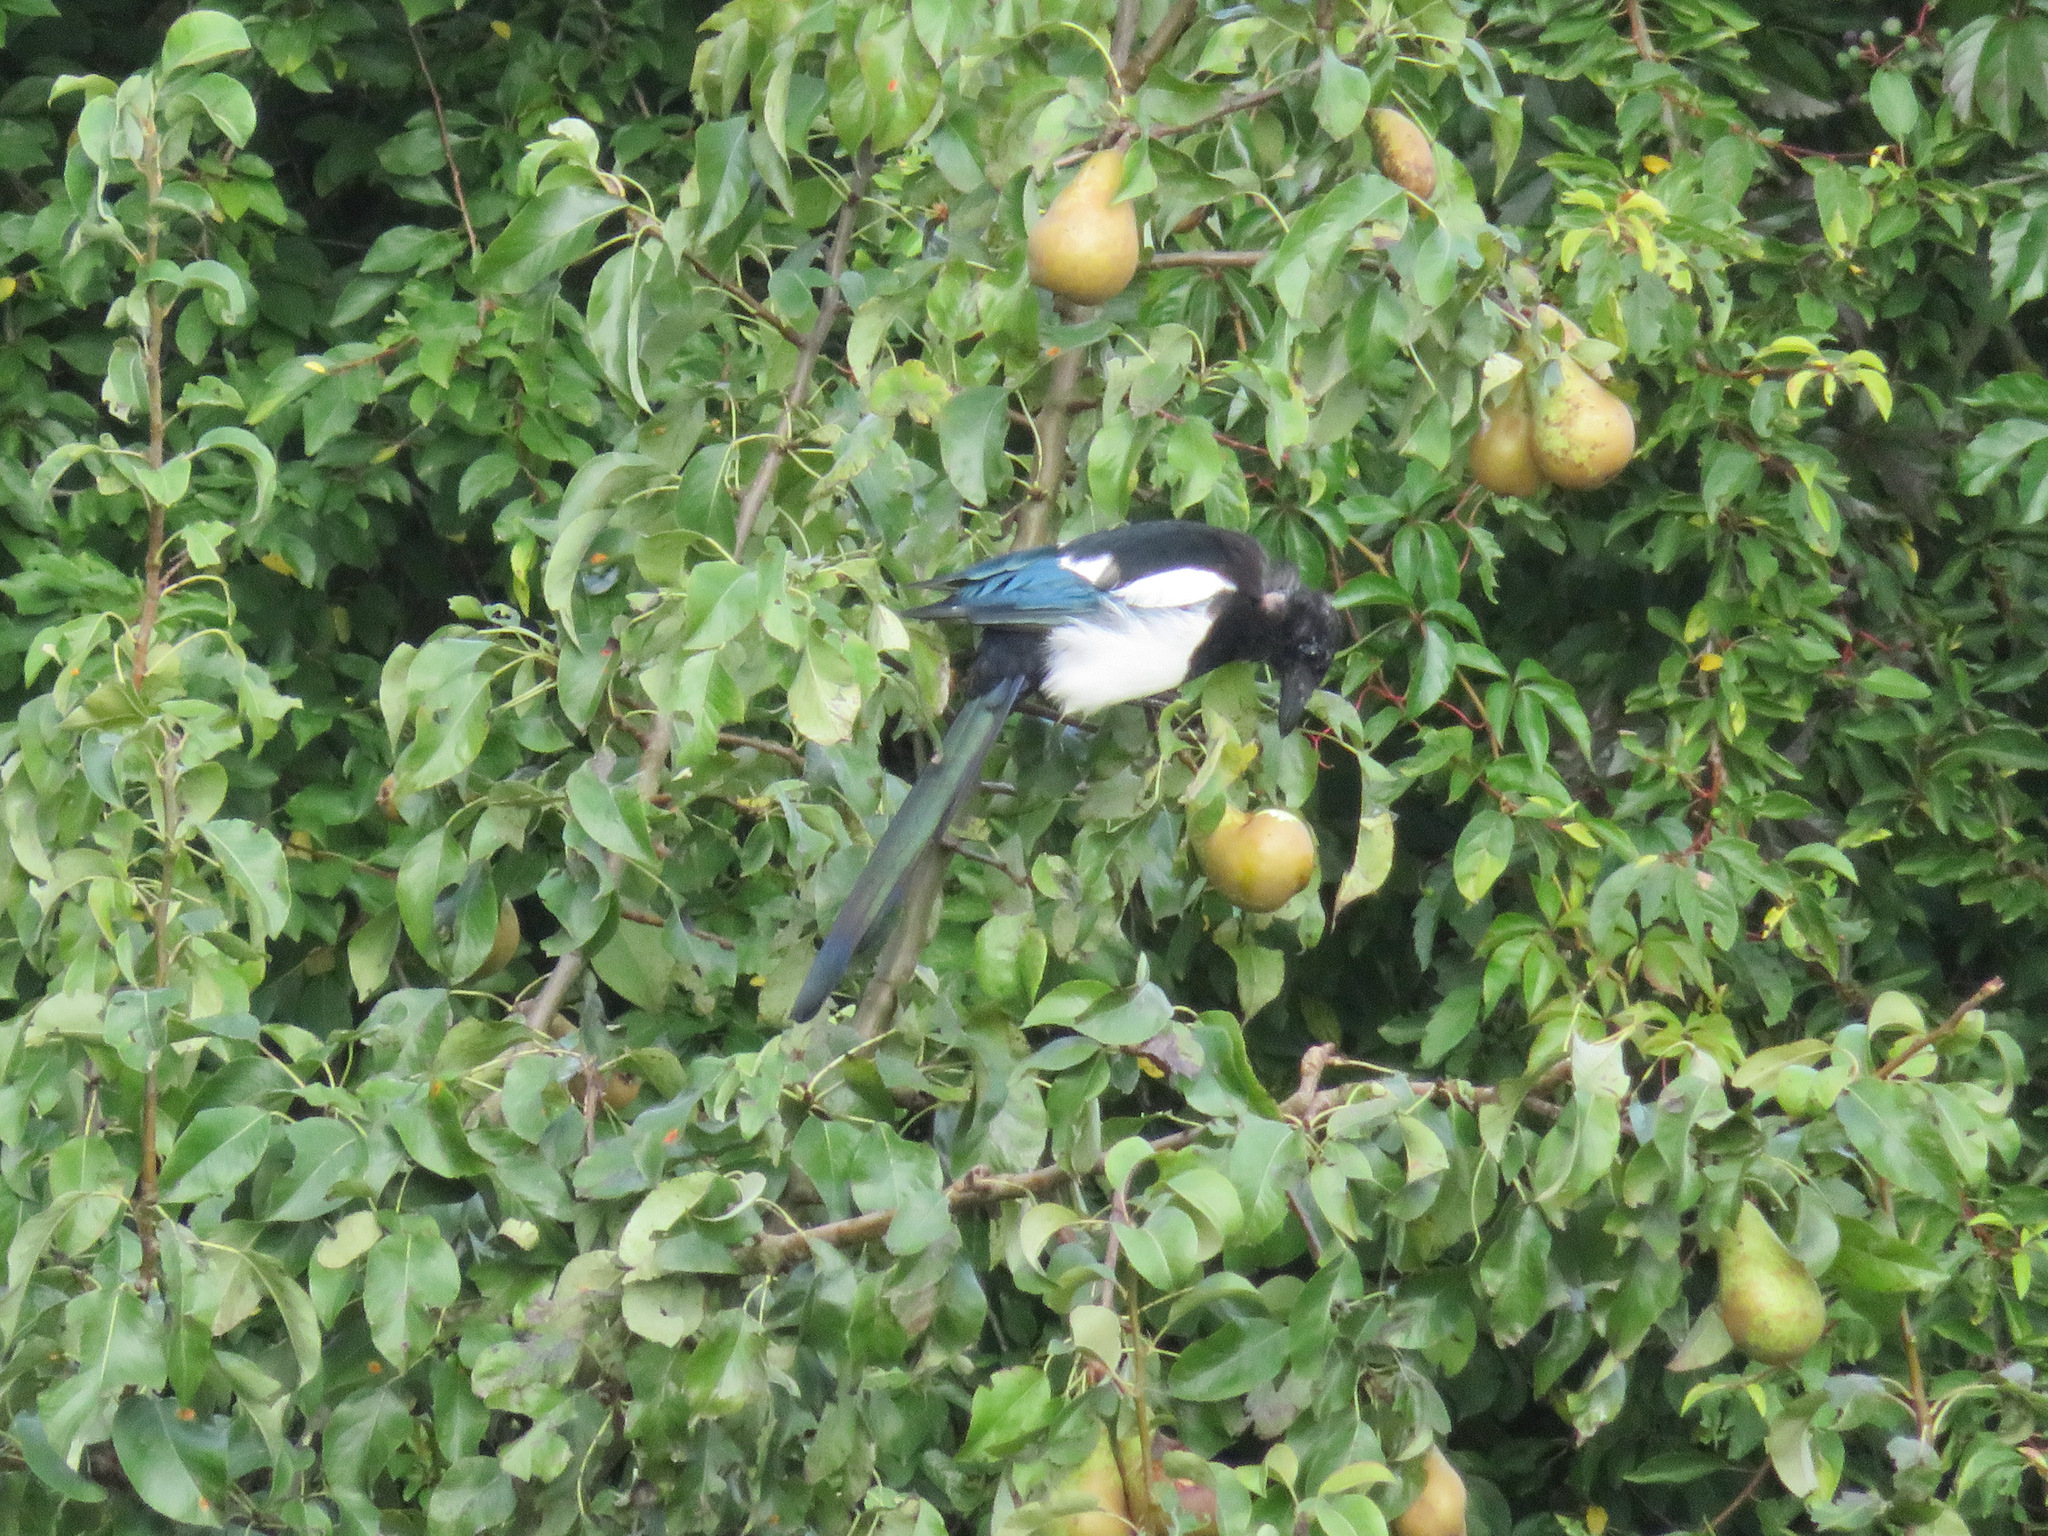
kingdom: Animalia
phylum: Chordata
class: Aves
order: Passeriformes
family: Corvidae
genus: Pica
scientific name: Pica pica
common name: Eurasian magpie
